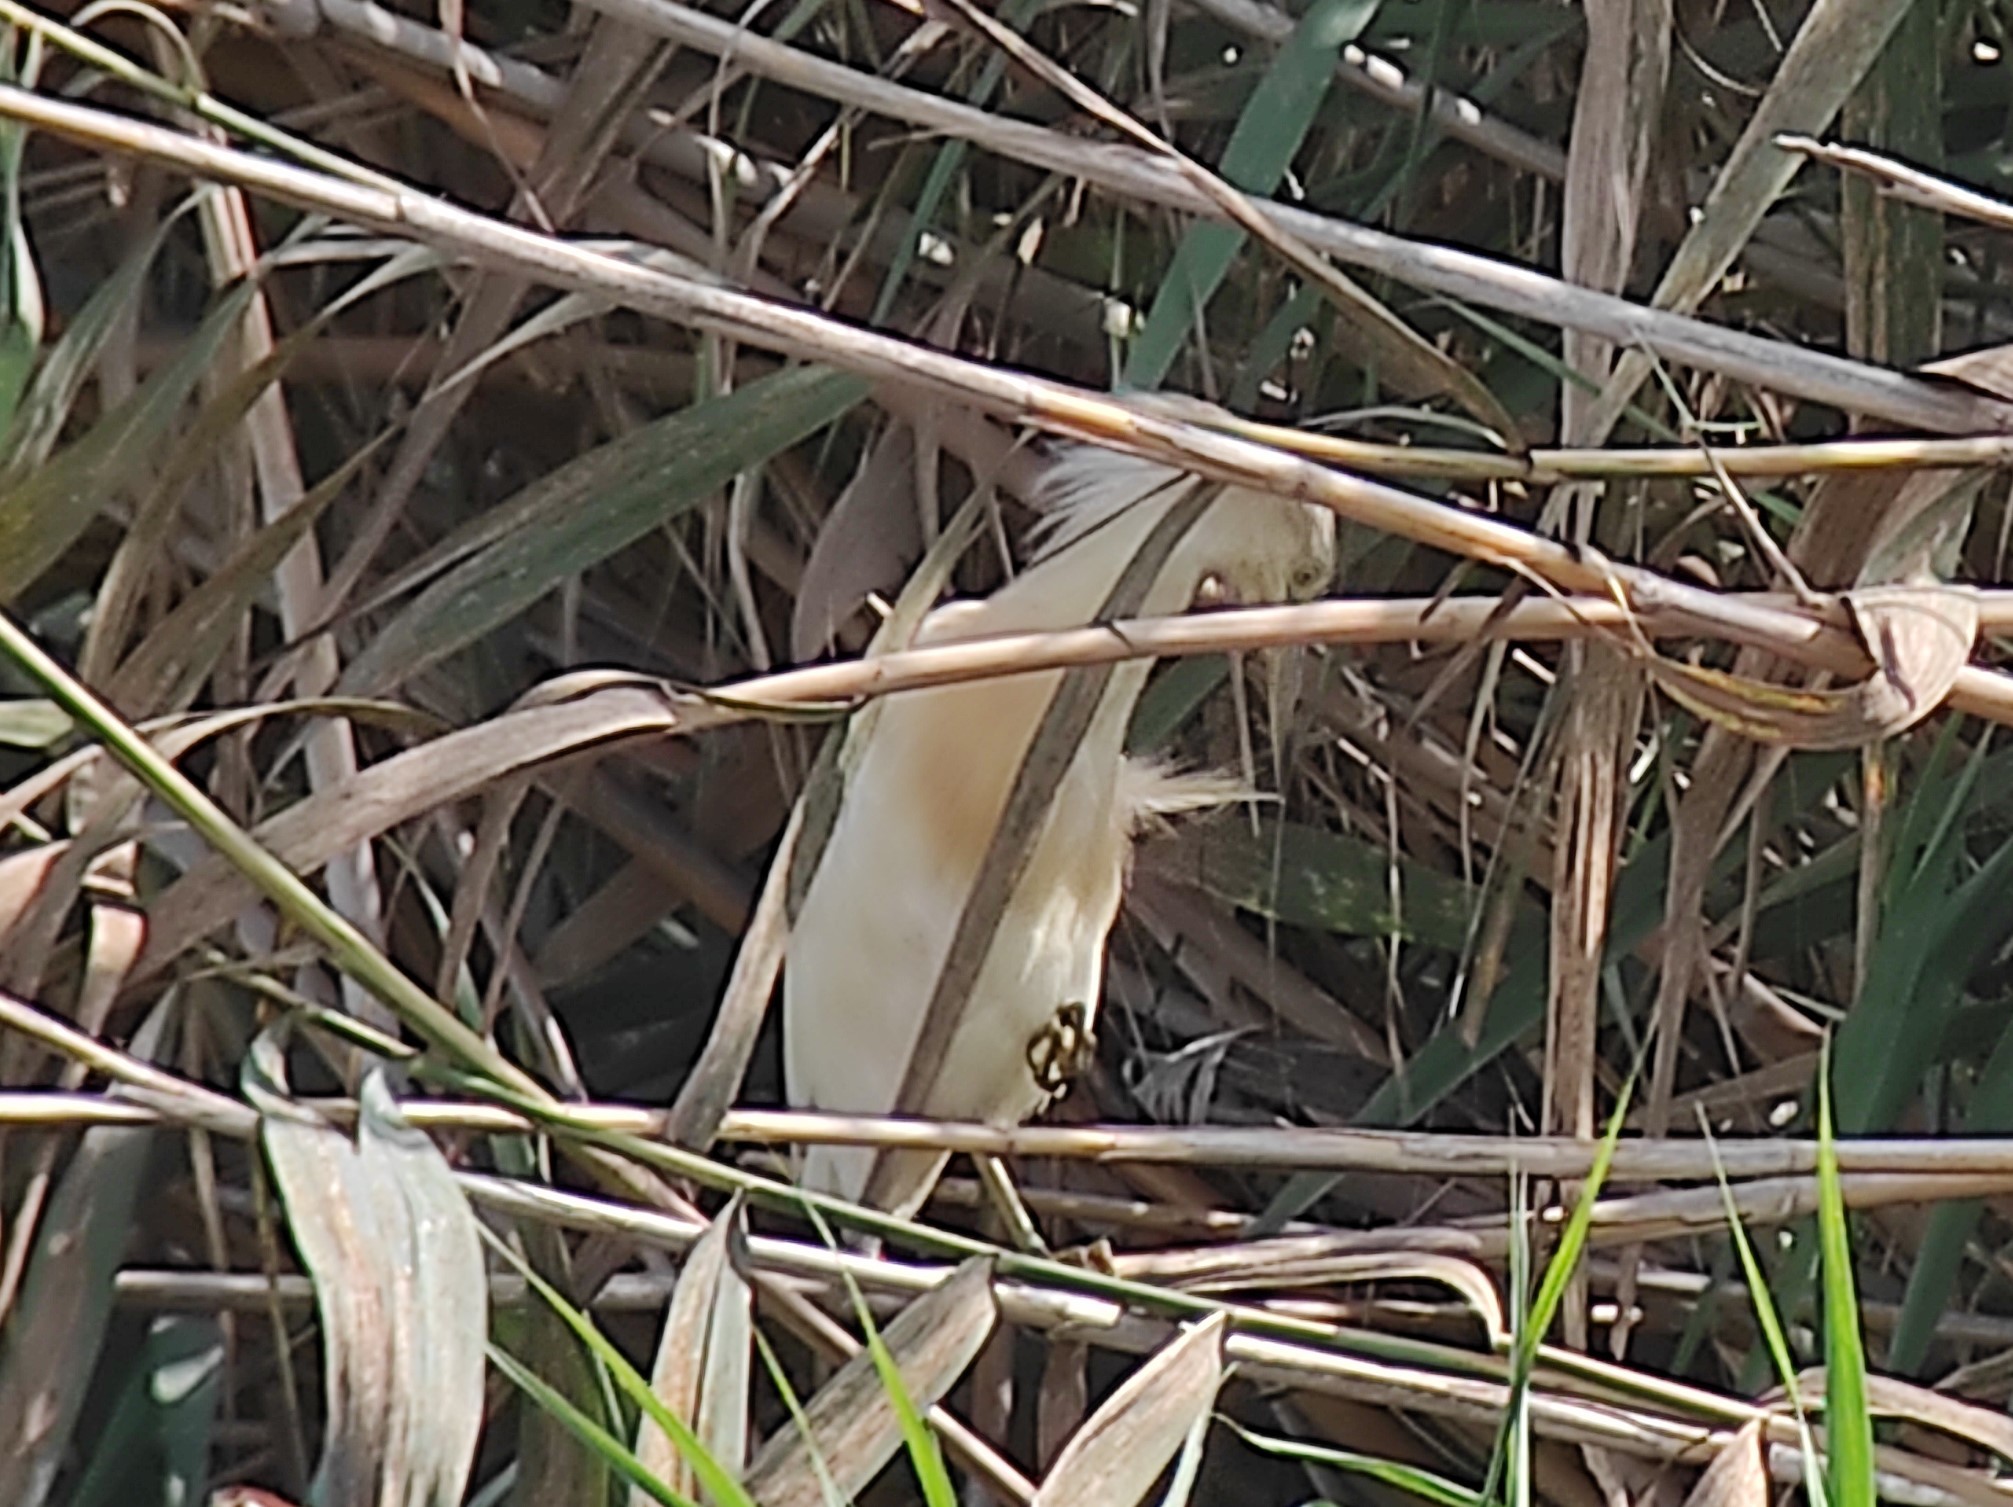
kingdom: Animalia
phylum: Chordata
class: Aves
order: Pelecaniformes
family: Ardeidae
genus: Ardeola
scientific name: Ardeola ralloides
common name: Squacco heron
